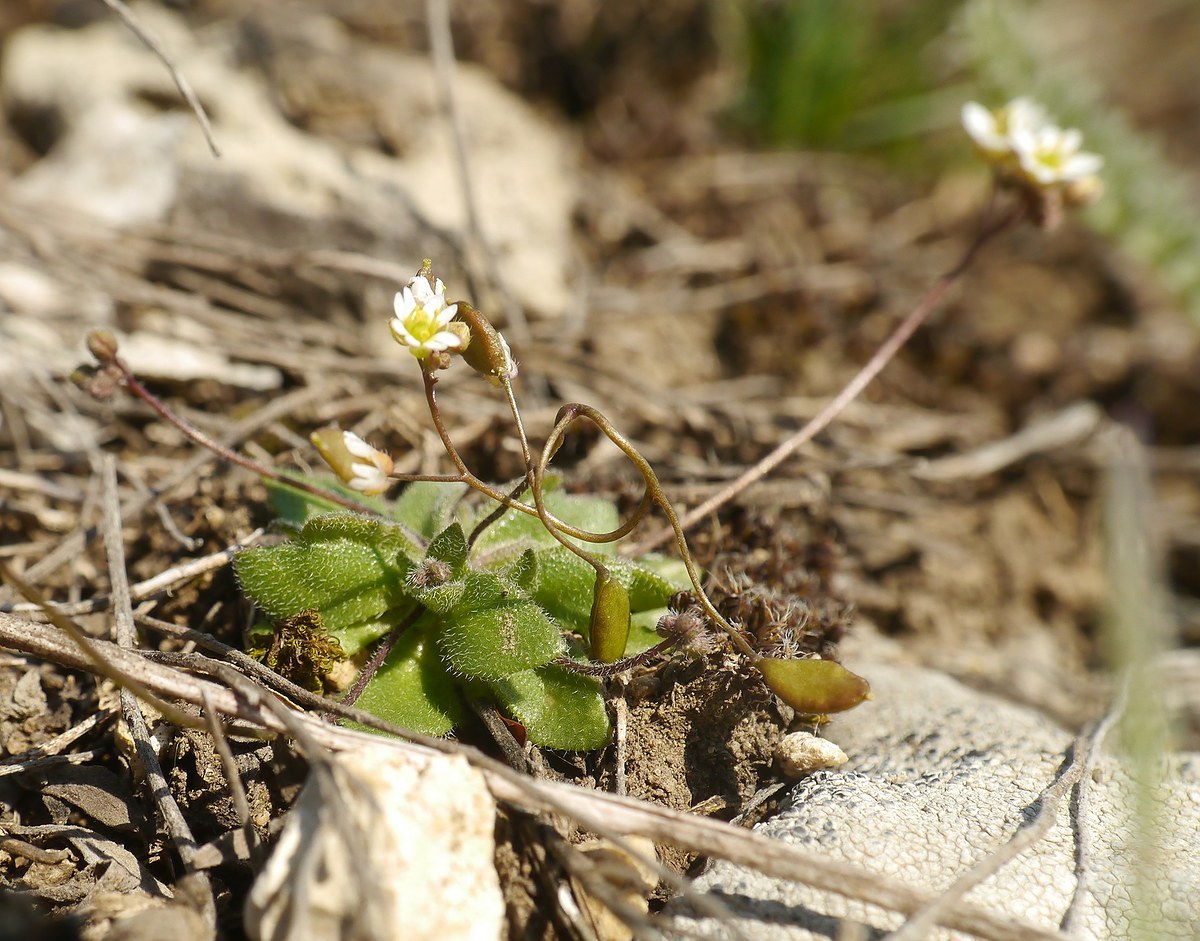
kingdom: Plantae
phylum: Tracheophyta
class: Magnoliopsida
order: Brassicales
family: Brassicaceae
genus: Draba
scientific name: Draba verna
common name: Spring draba
